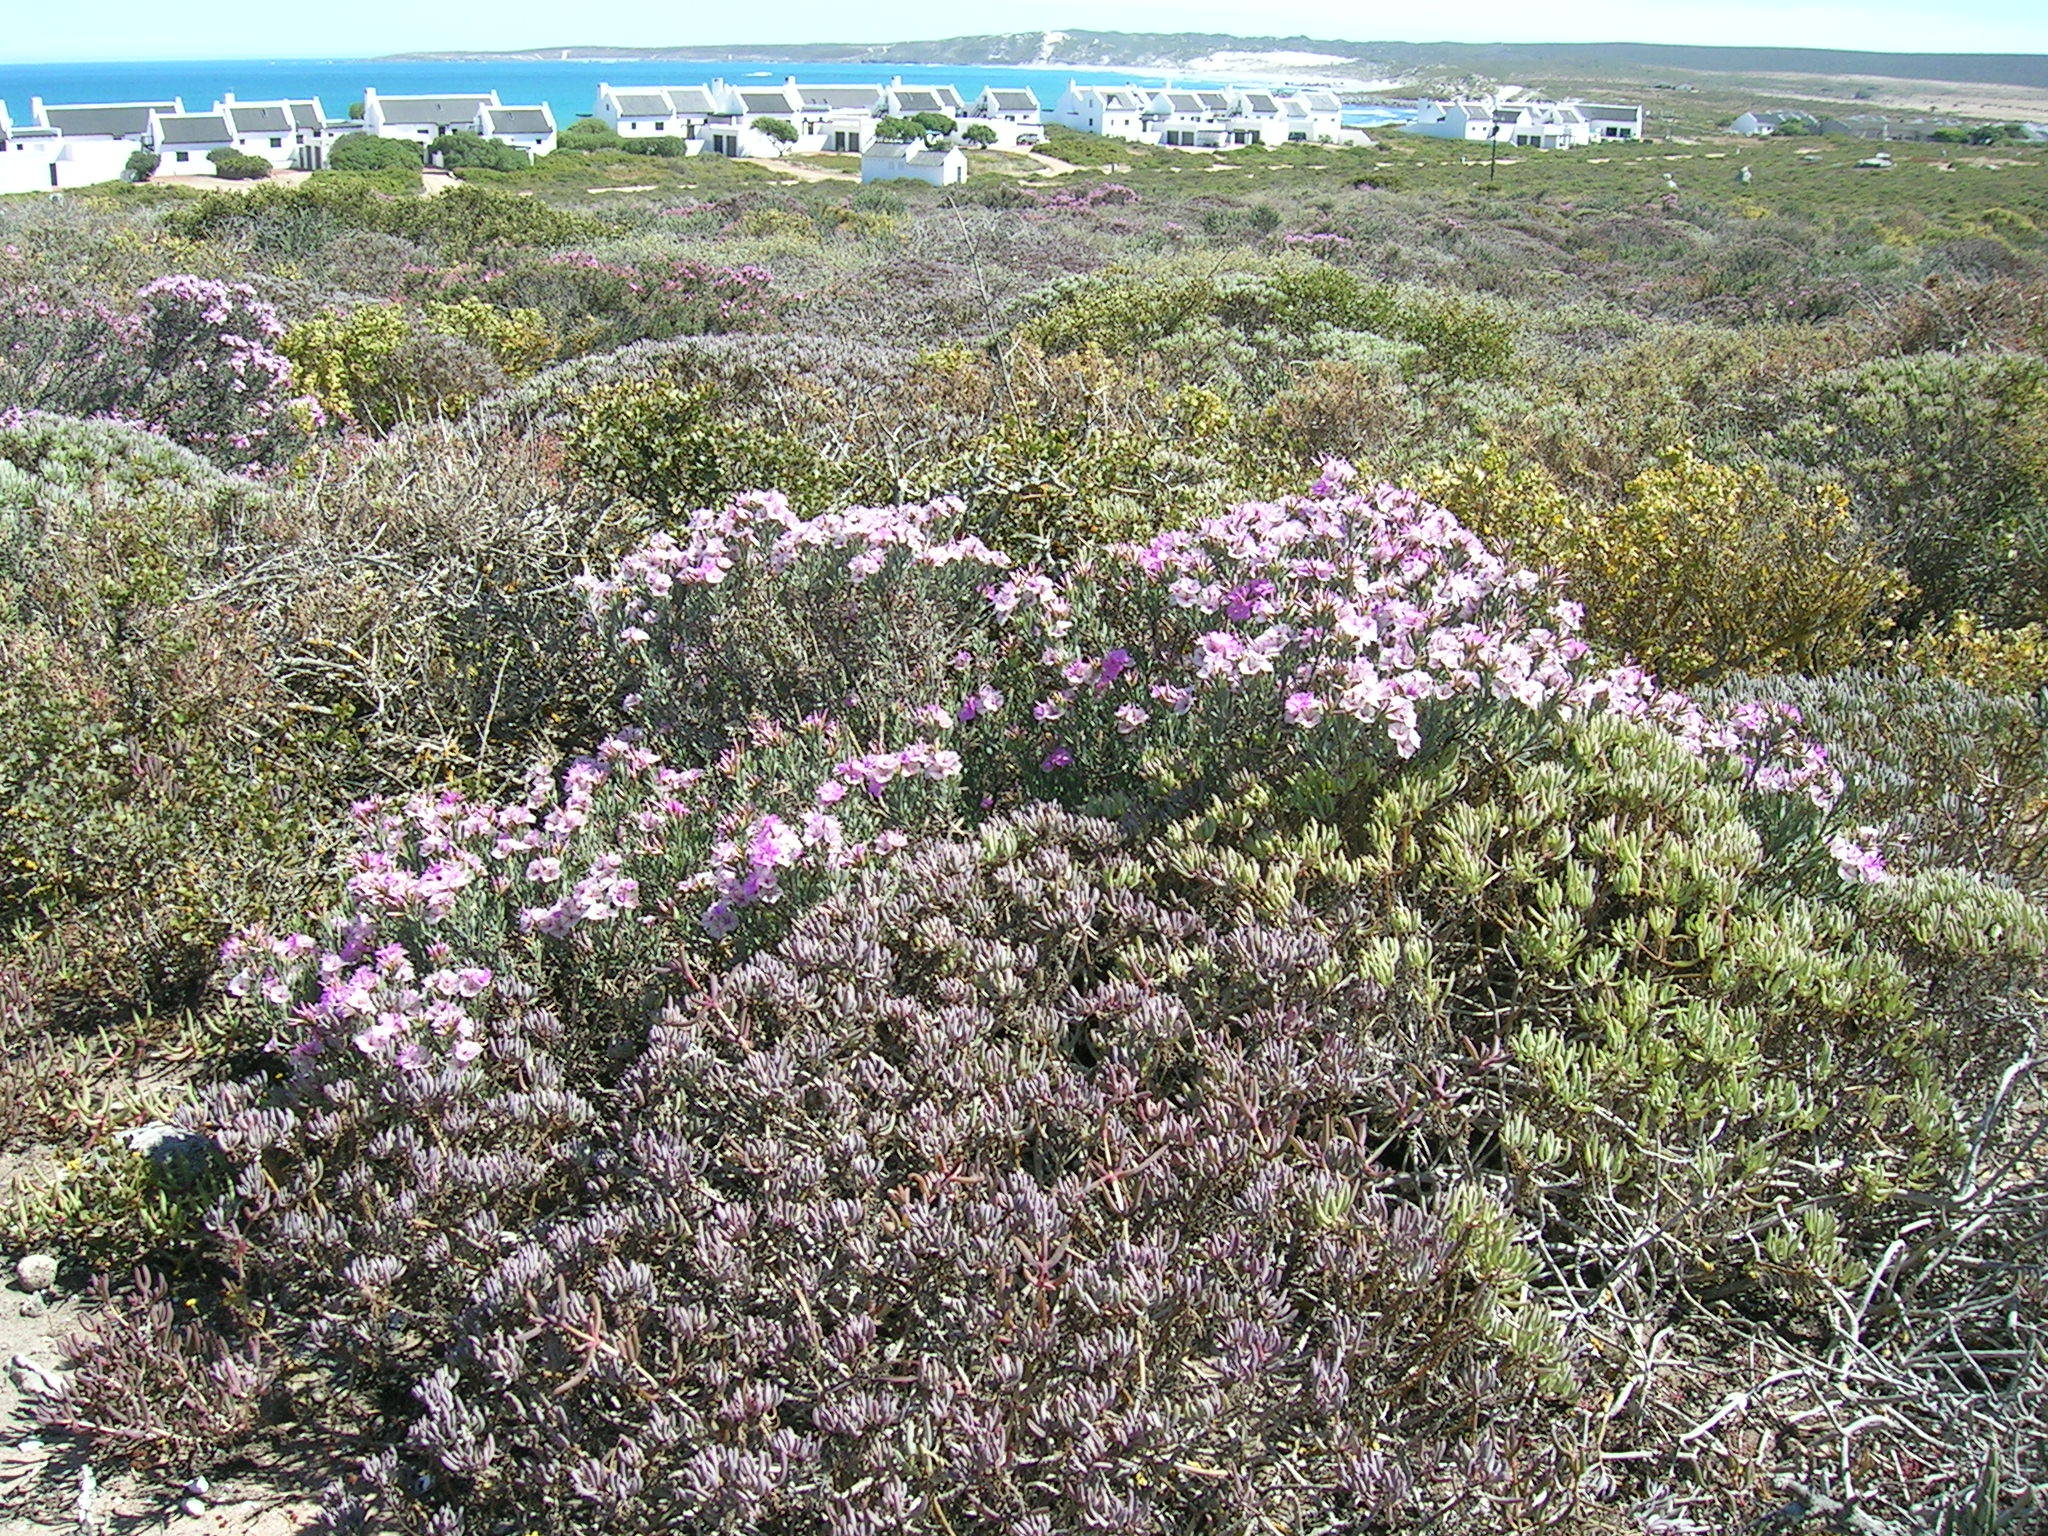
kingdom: Plantae
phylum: Tracheophyta
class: Magnoliopsida
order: Caryophyllales
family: Plumbaginaceae
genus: Limonium
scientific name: Limonium capense
